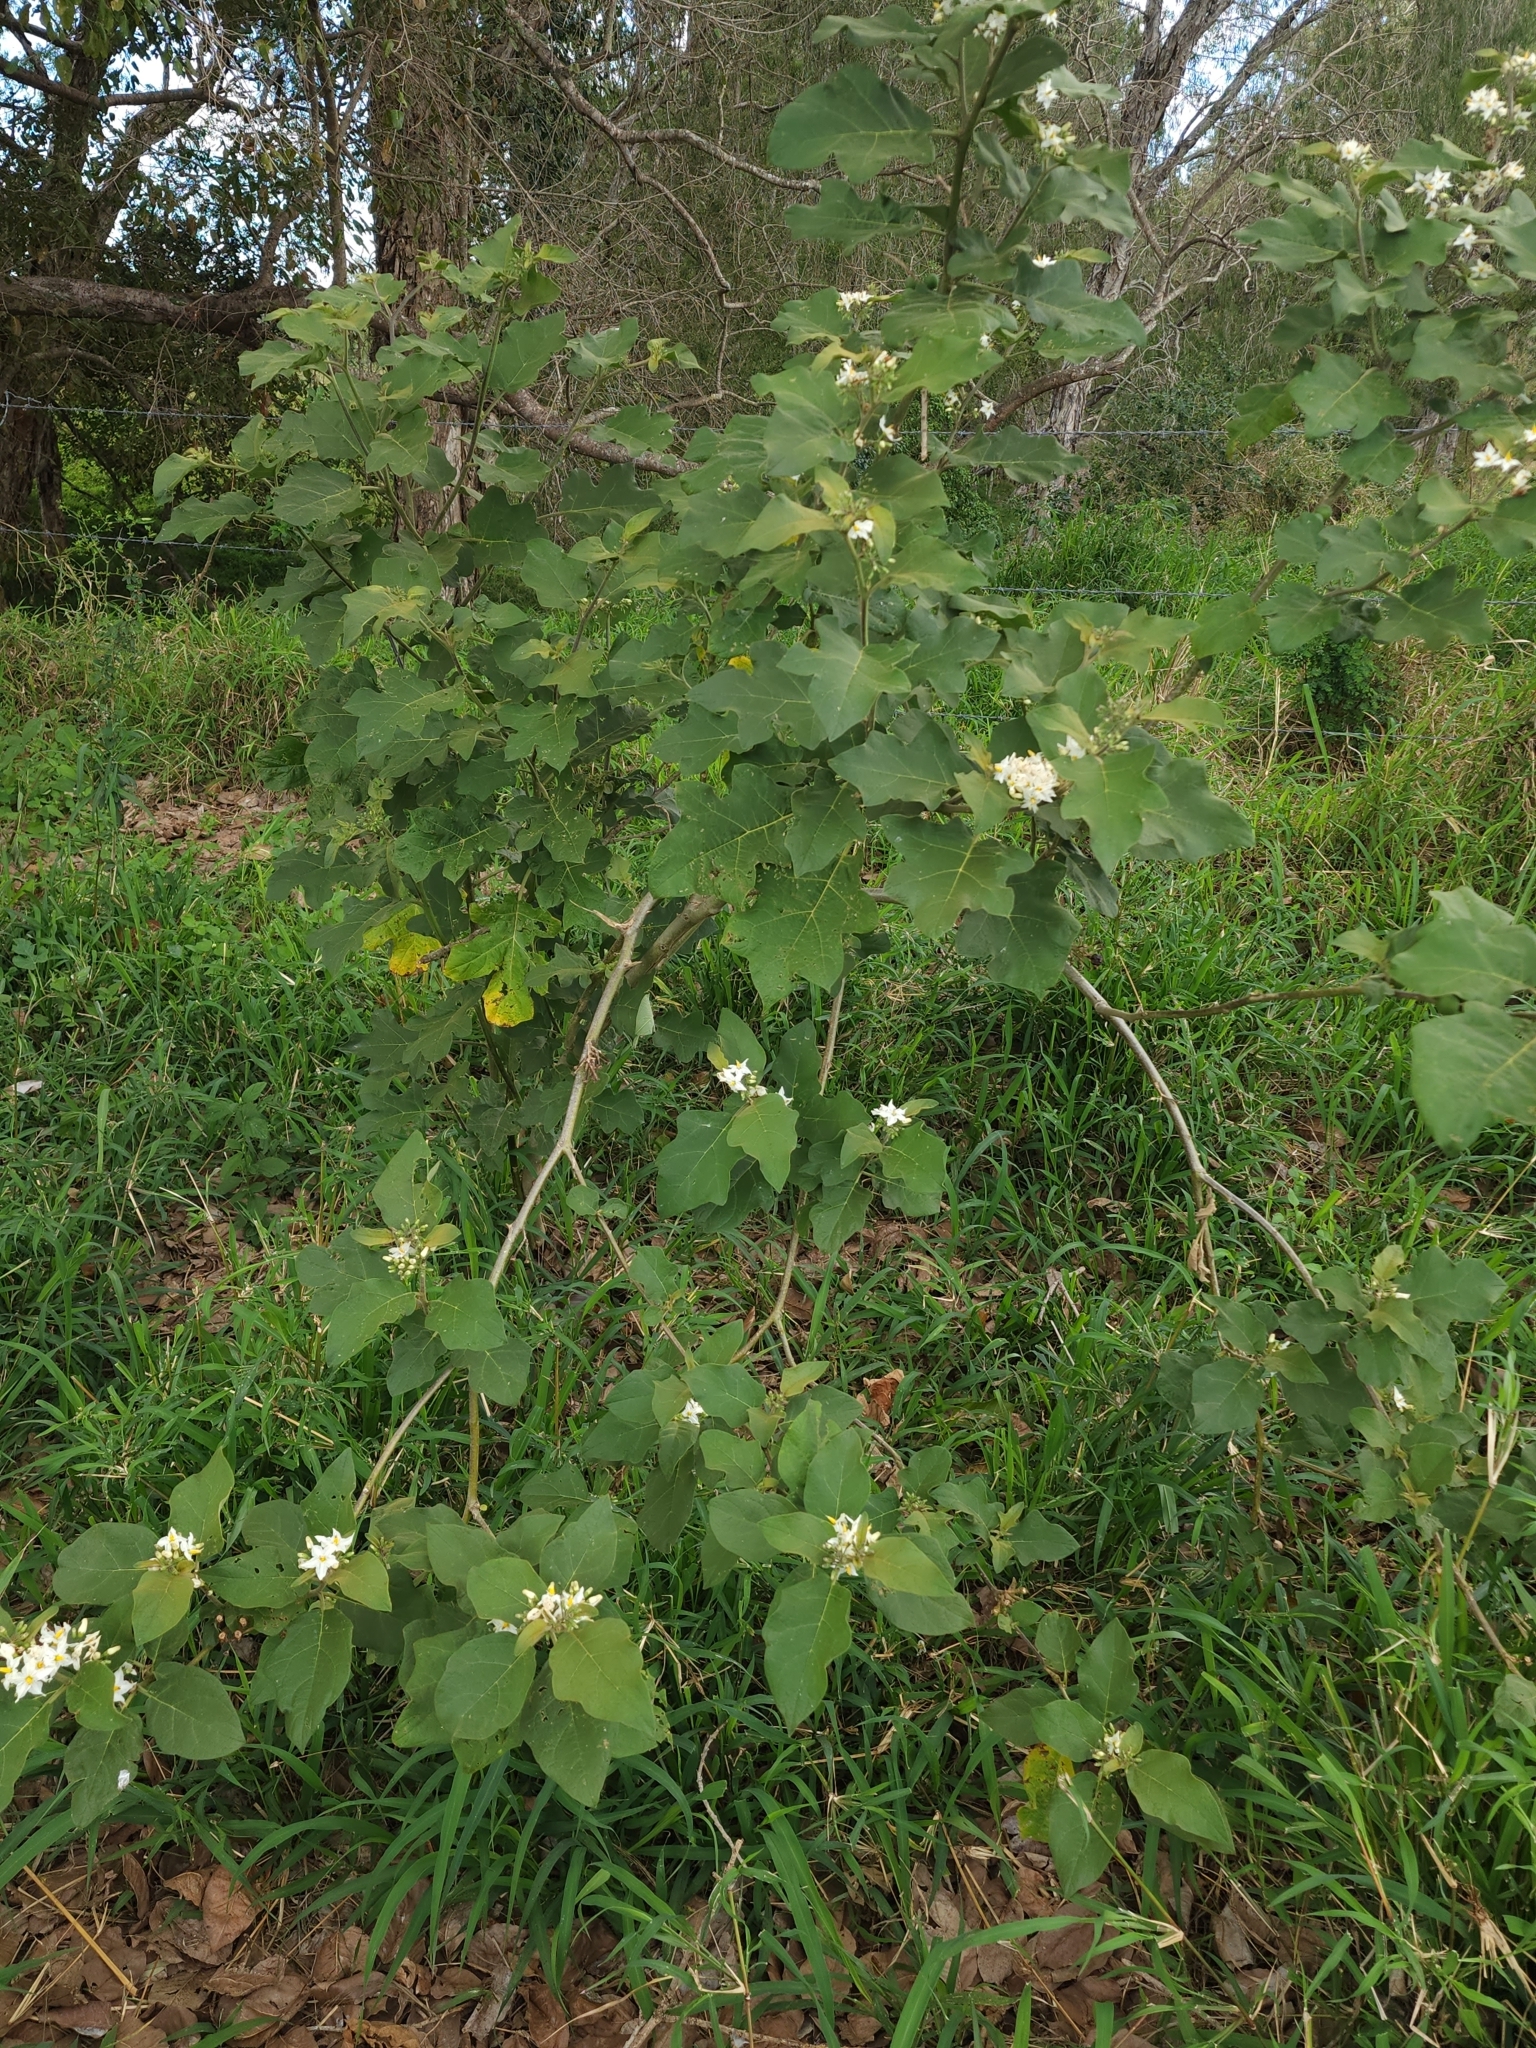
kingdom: Plantae
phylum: Tracheophyta
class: Magnoliopsida
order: Solanales
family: Solanaceae
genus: Solanum
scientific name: Solanum torvum
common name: Turkey berry
